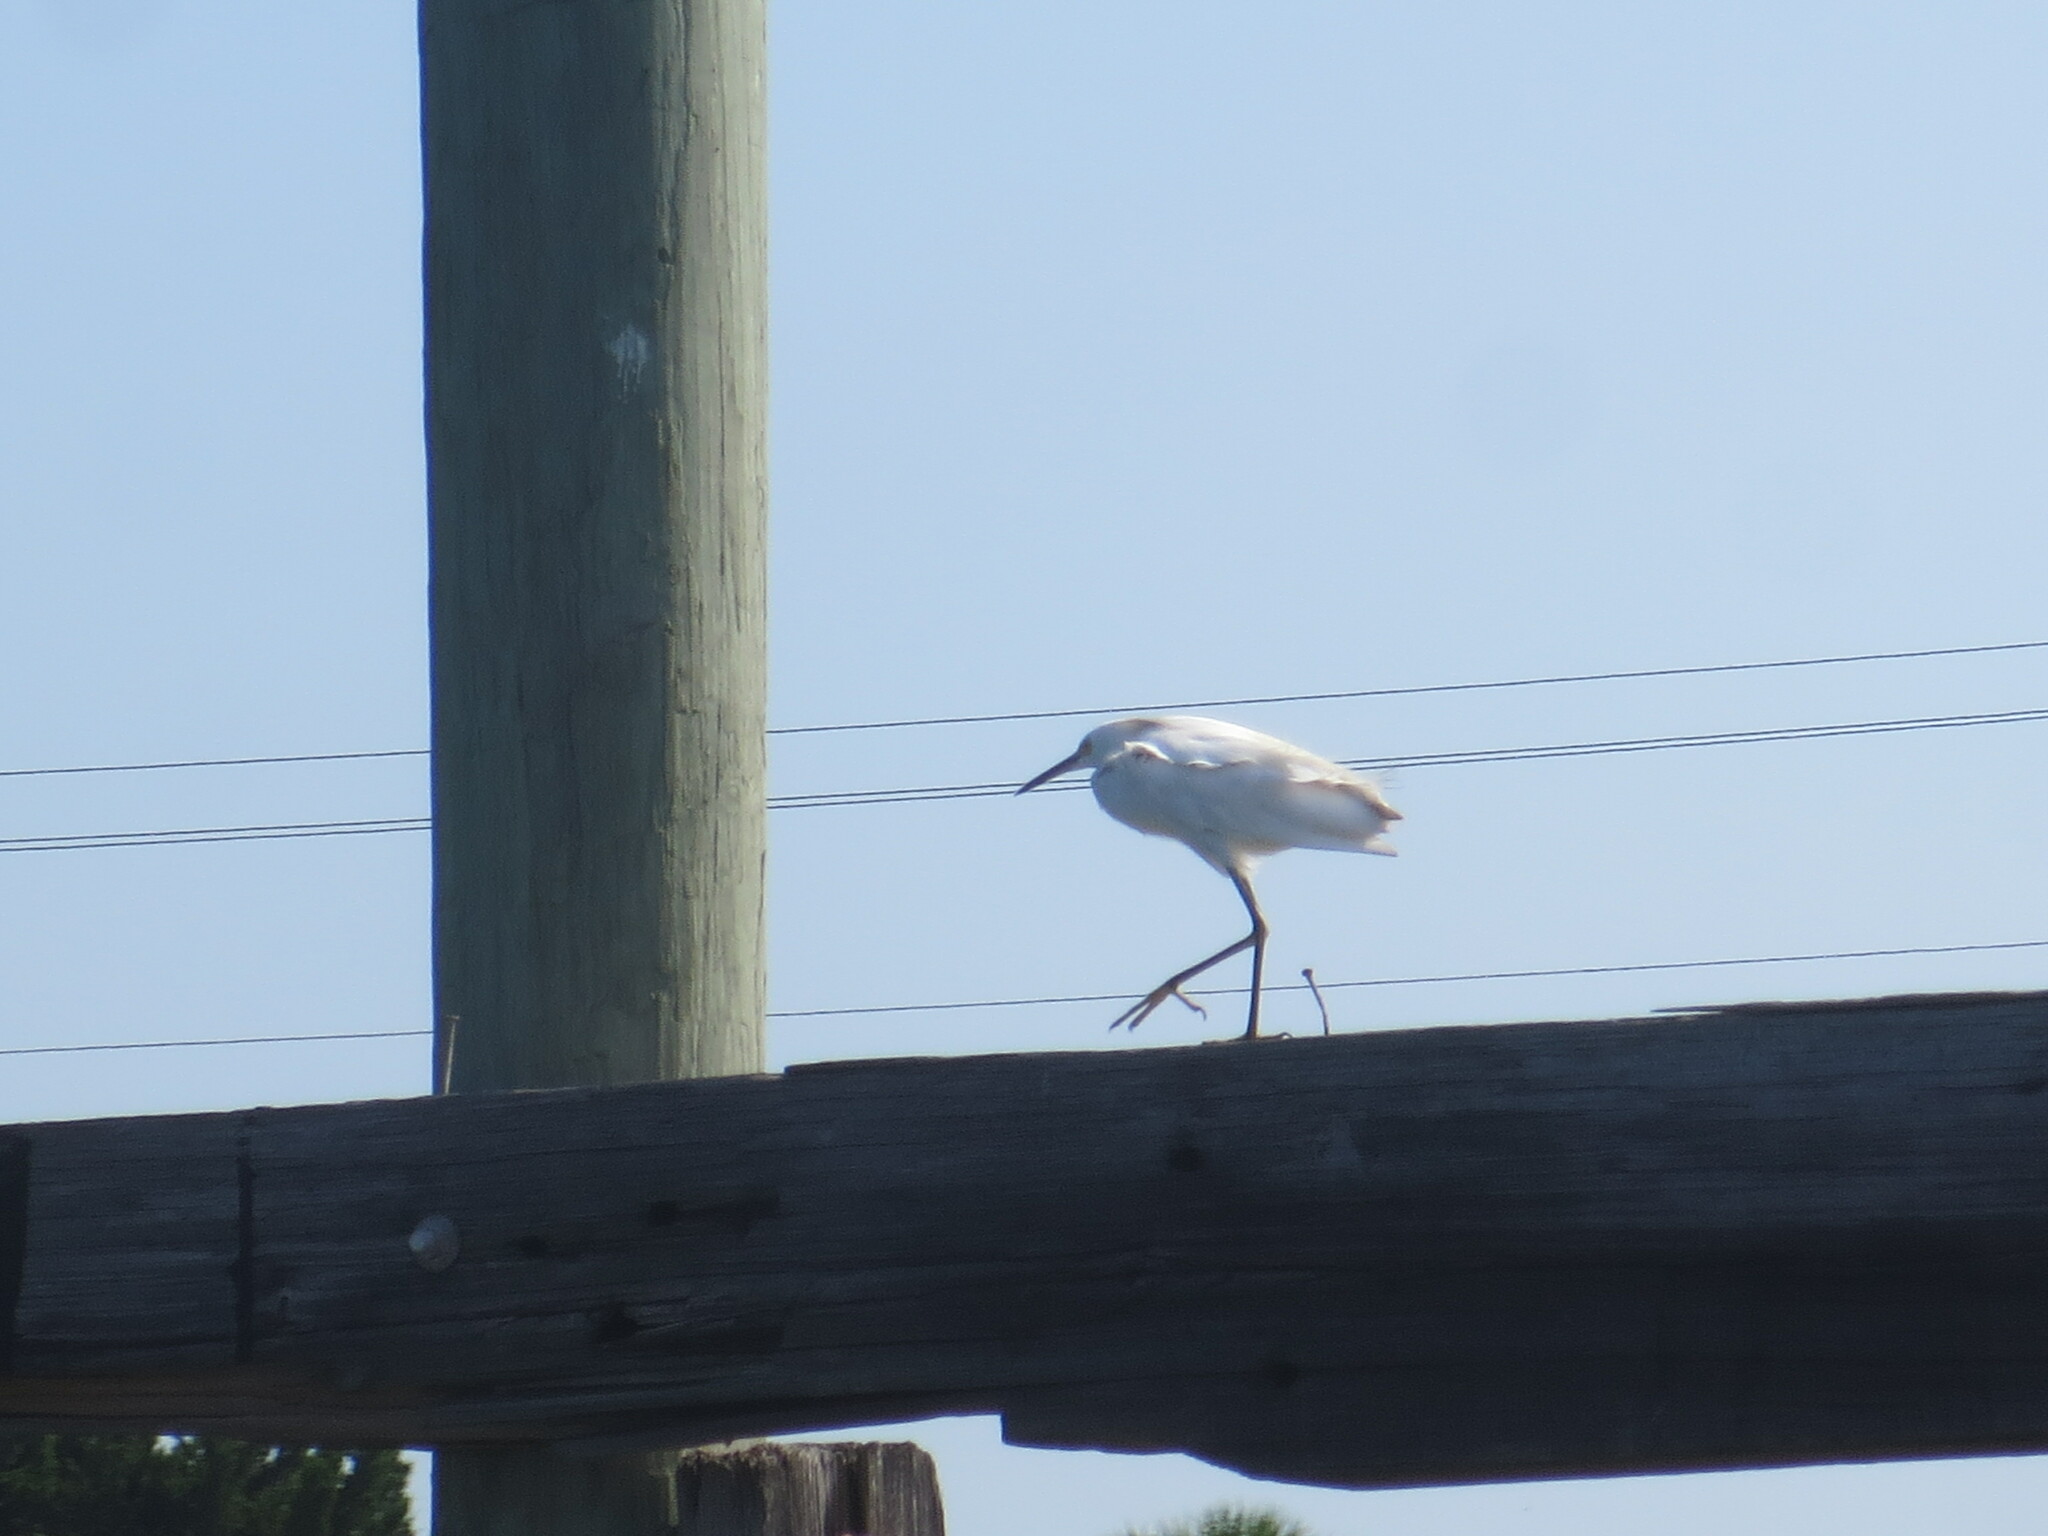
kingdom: Animalia
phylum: Chordata
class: Aves
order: Pelecaniformes
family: Ardeidae
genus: Egretta
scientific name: Egretta thula
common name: Snowy egret
